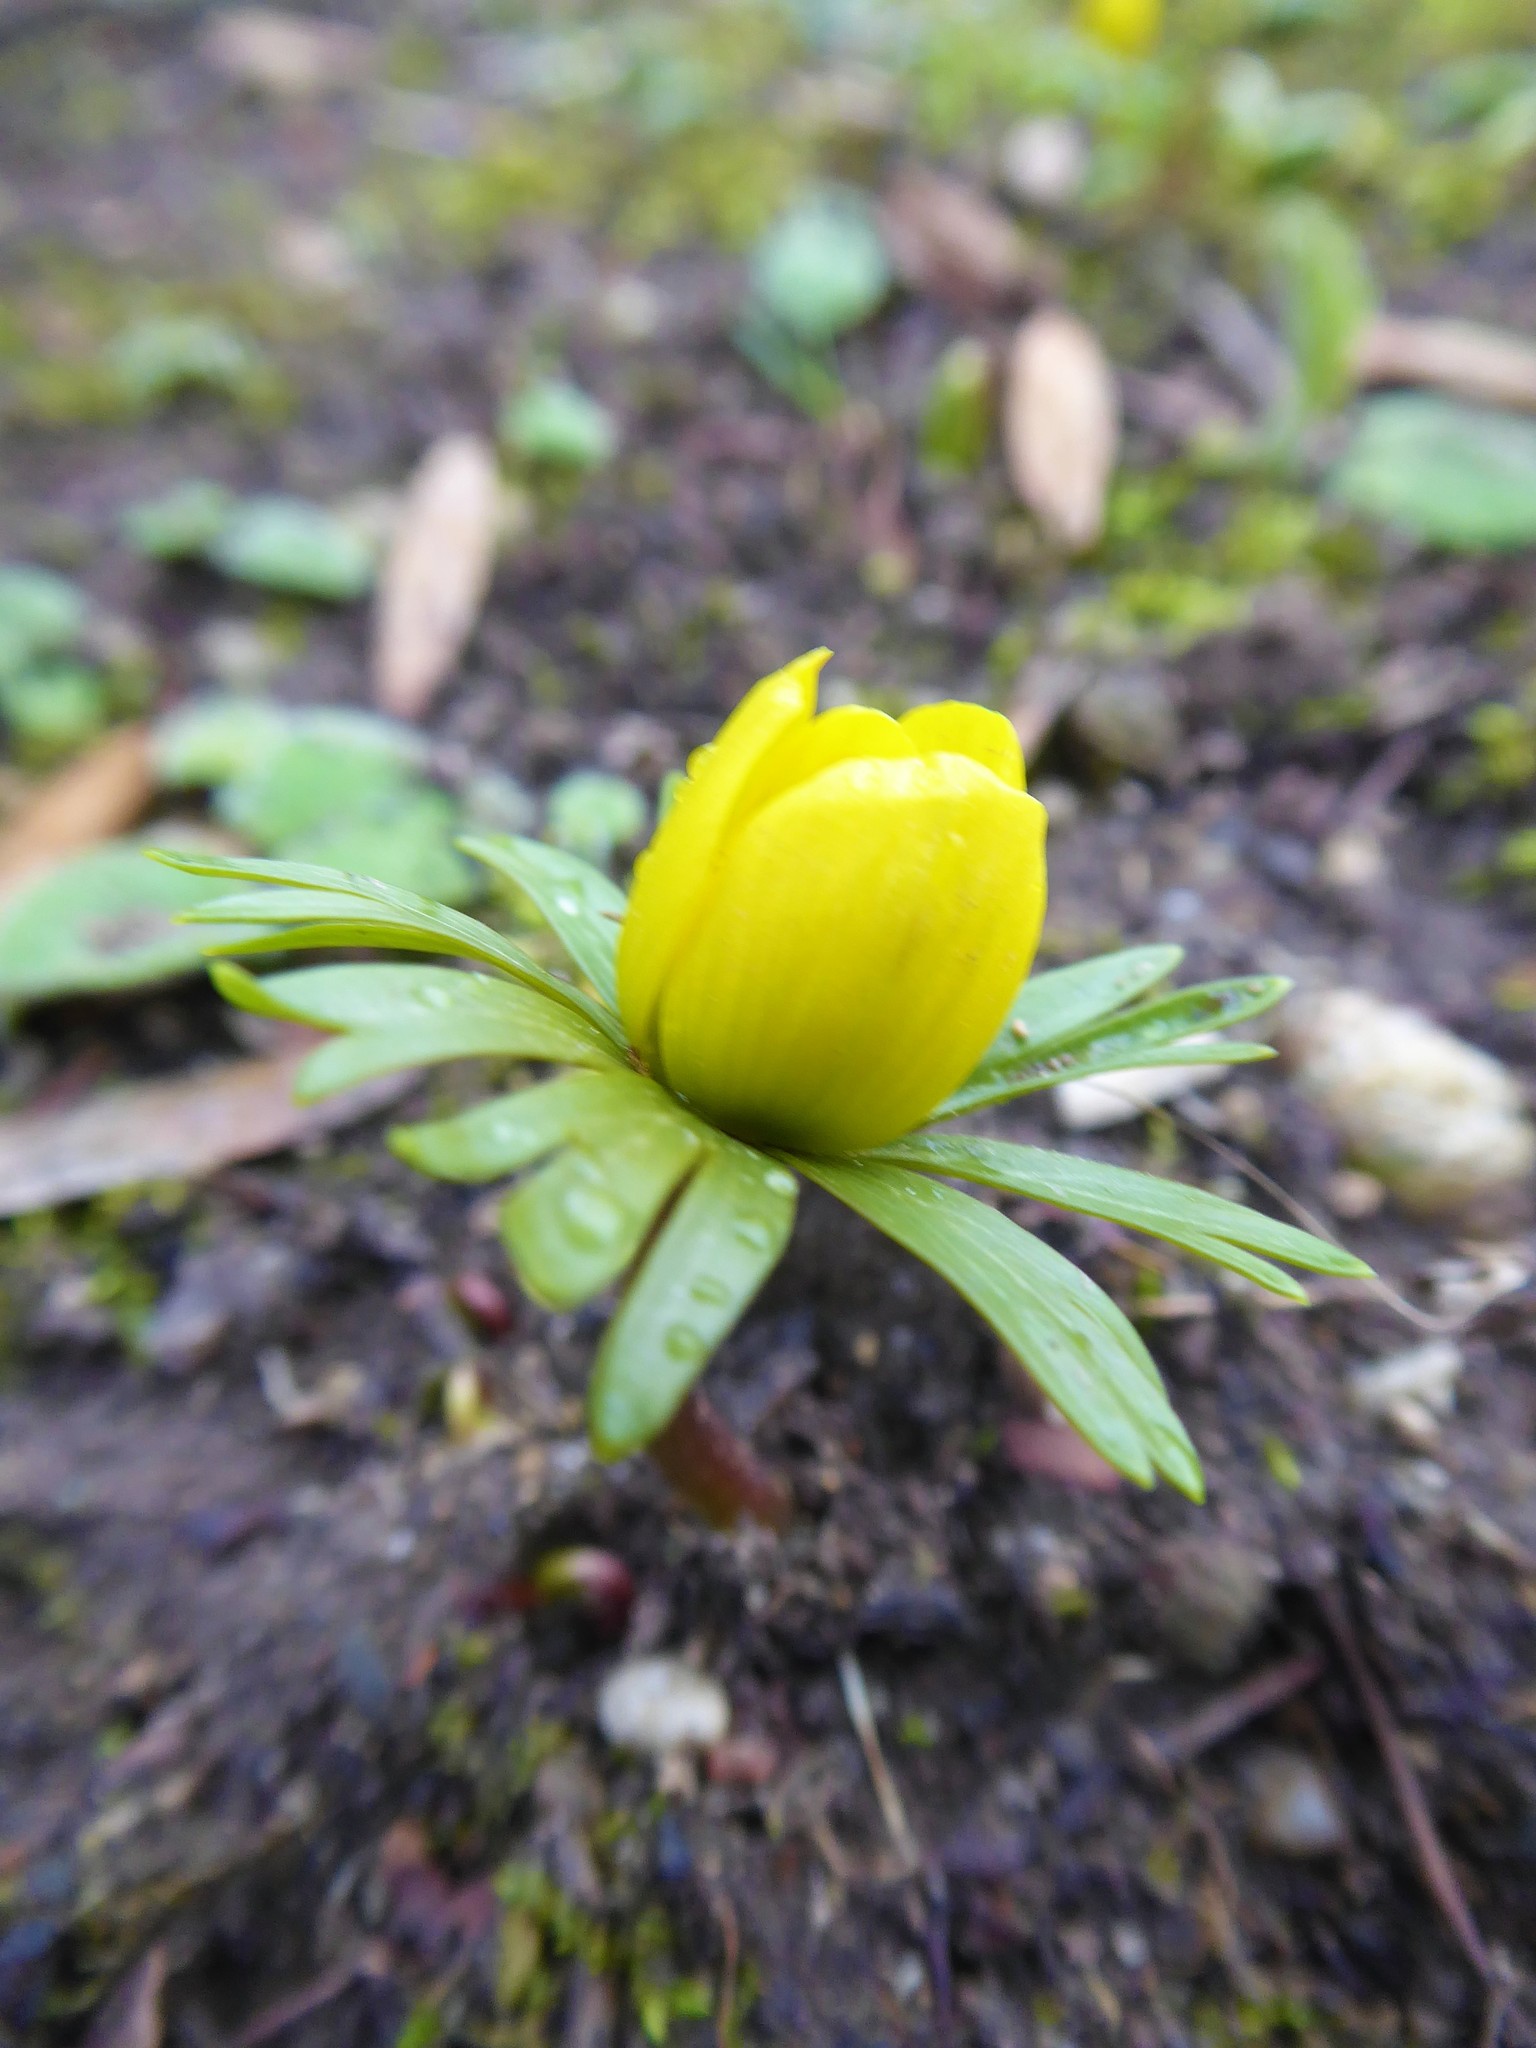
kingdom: Plantae
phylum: Tracheophyta
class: Magnoliopsida
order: Ranunculales
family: Ranunculaceae
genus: Eranthis
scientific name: Eranthis hyemalis
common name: Winter aconite
